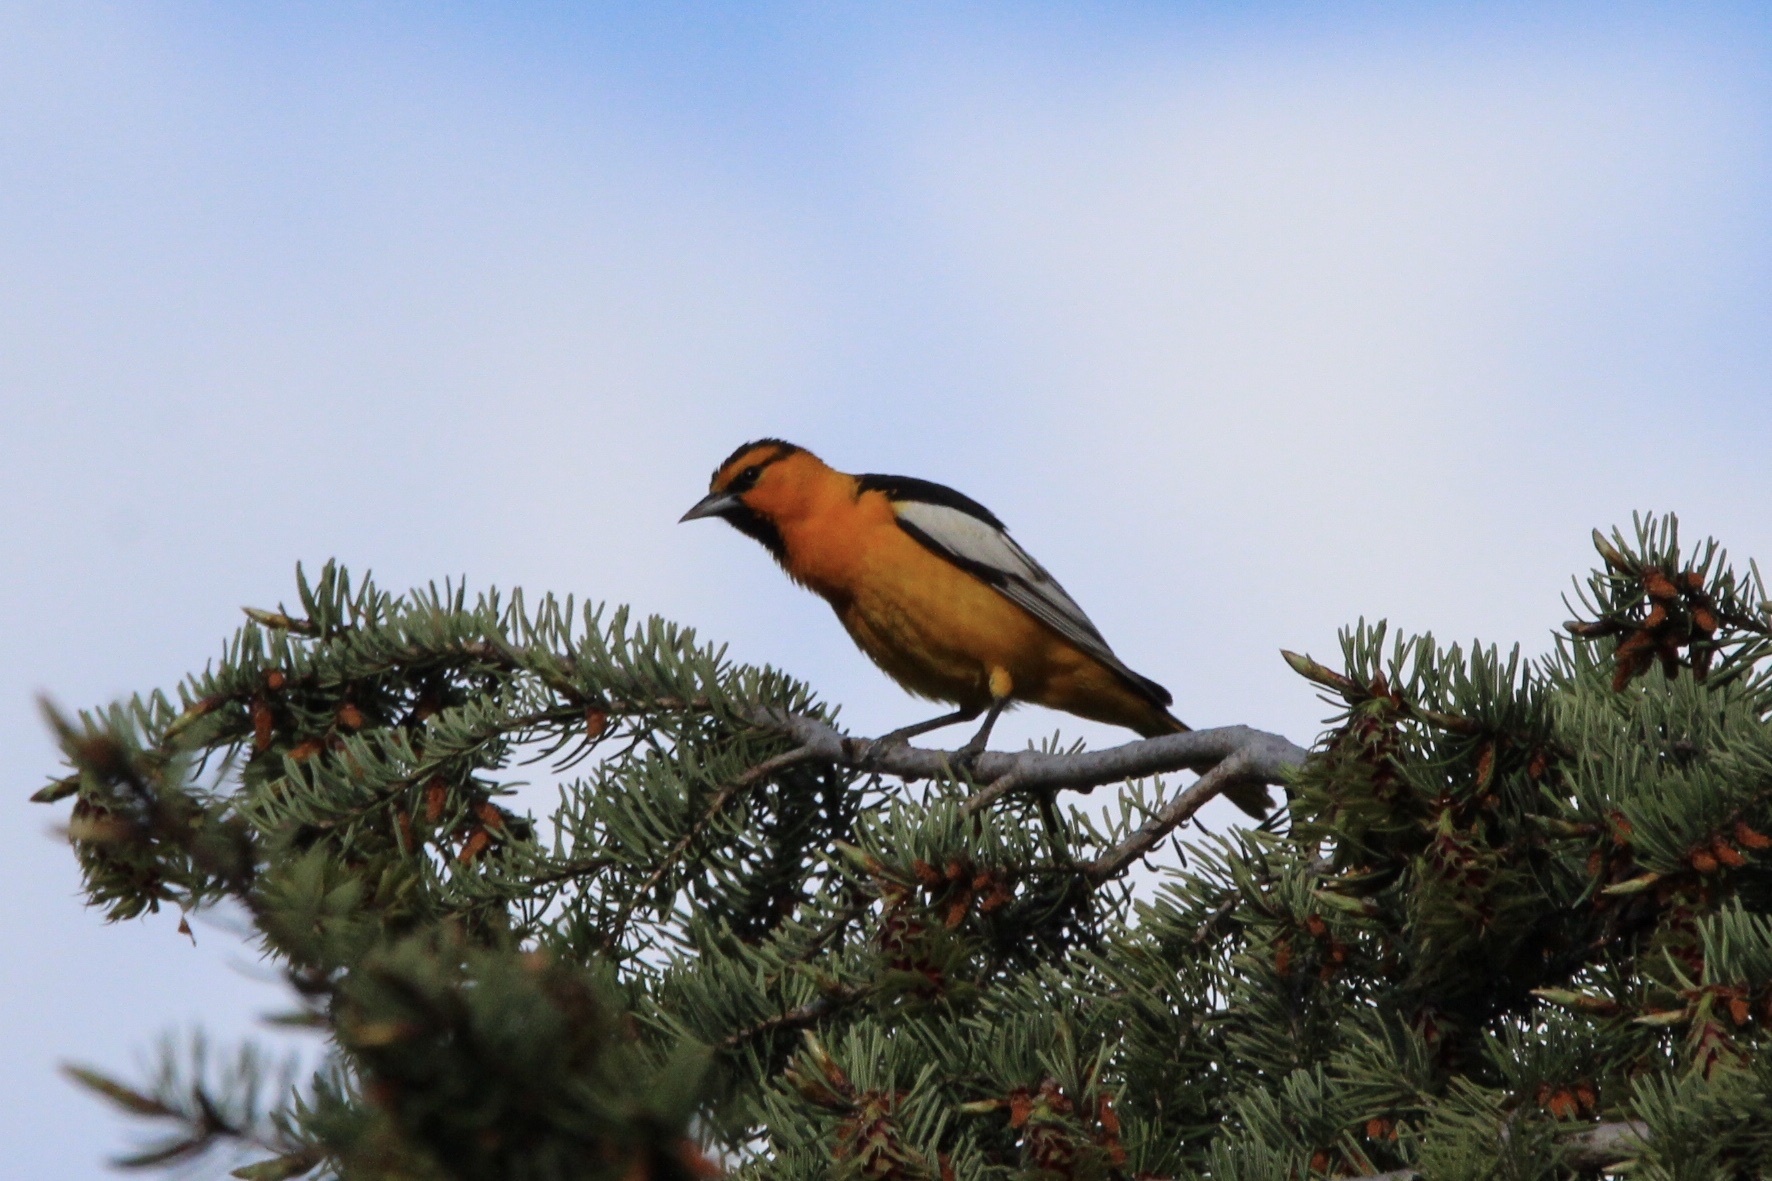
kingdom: Animalia
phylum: Chordata
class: Aves
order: Passeriformes
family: Icteridae
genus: Icterus
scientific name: Icterus bullockii
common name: Bullock's oriole
